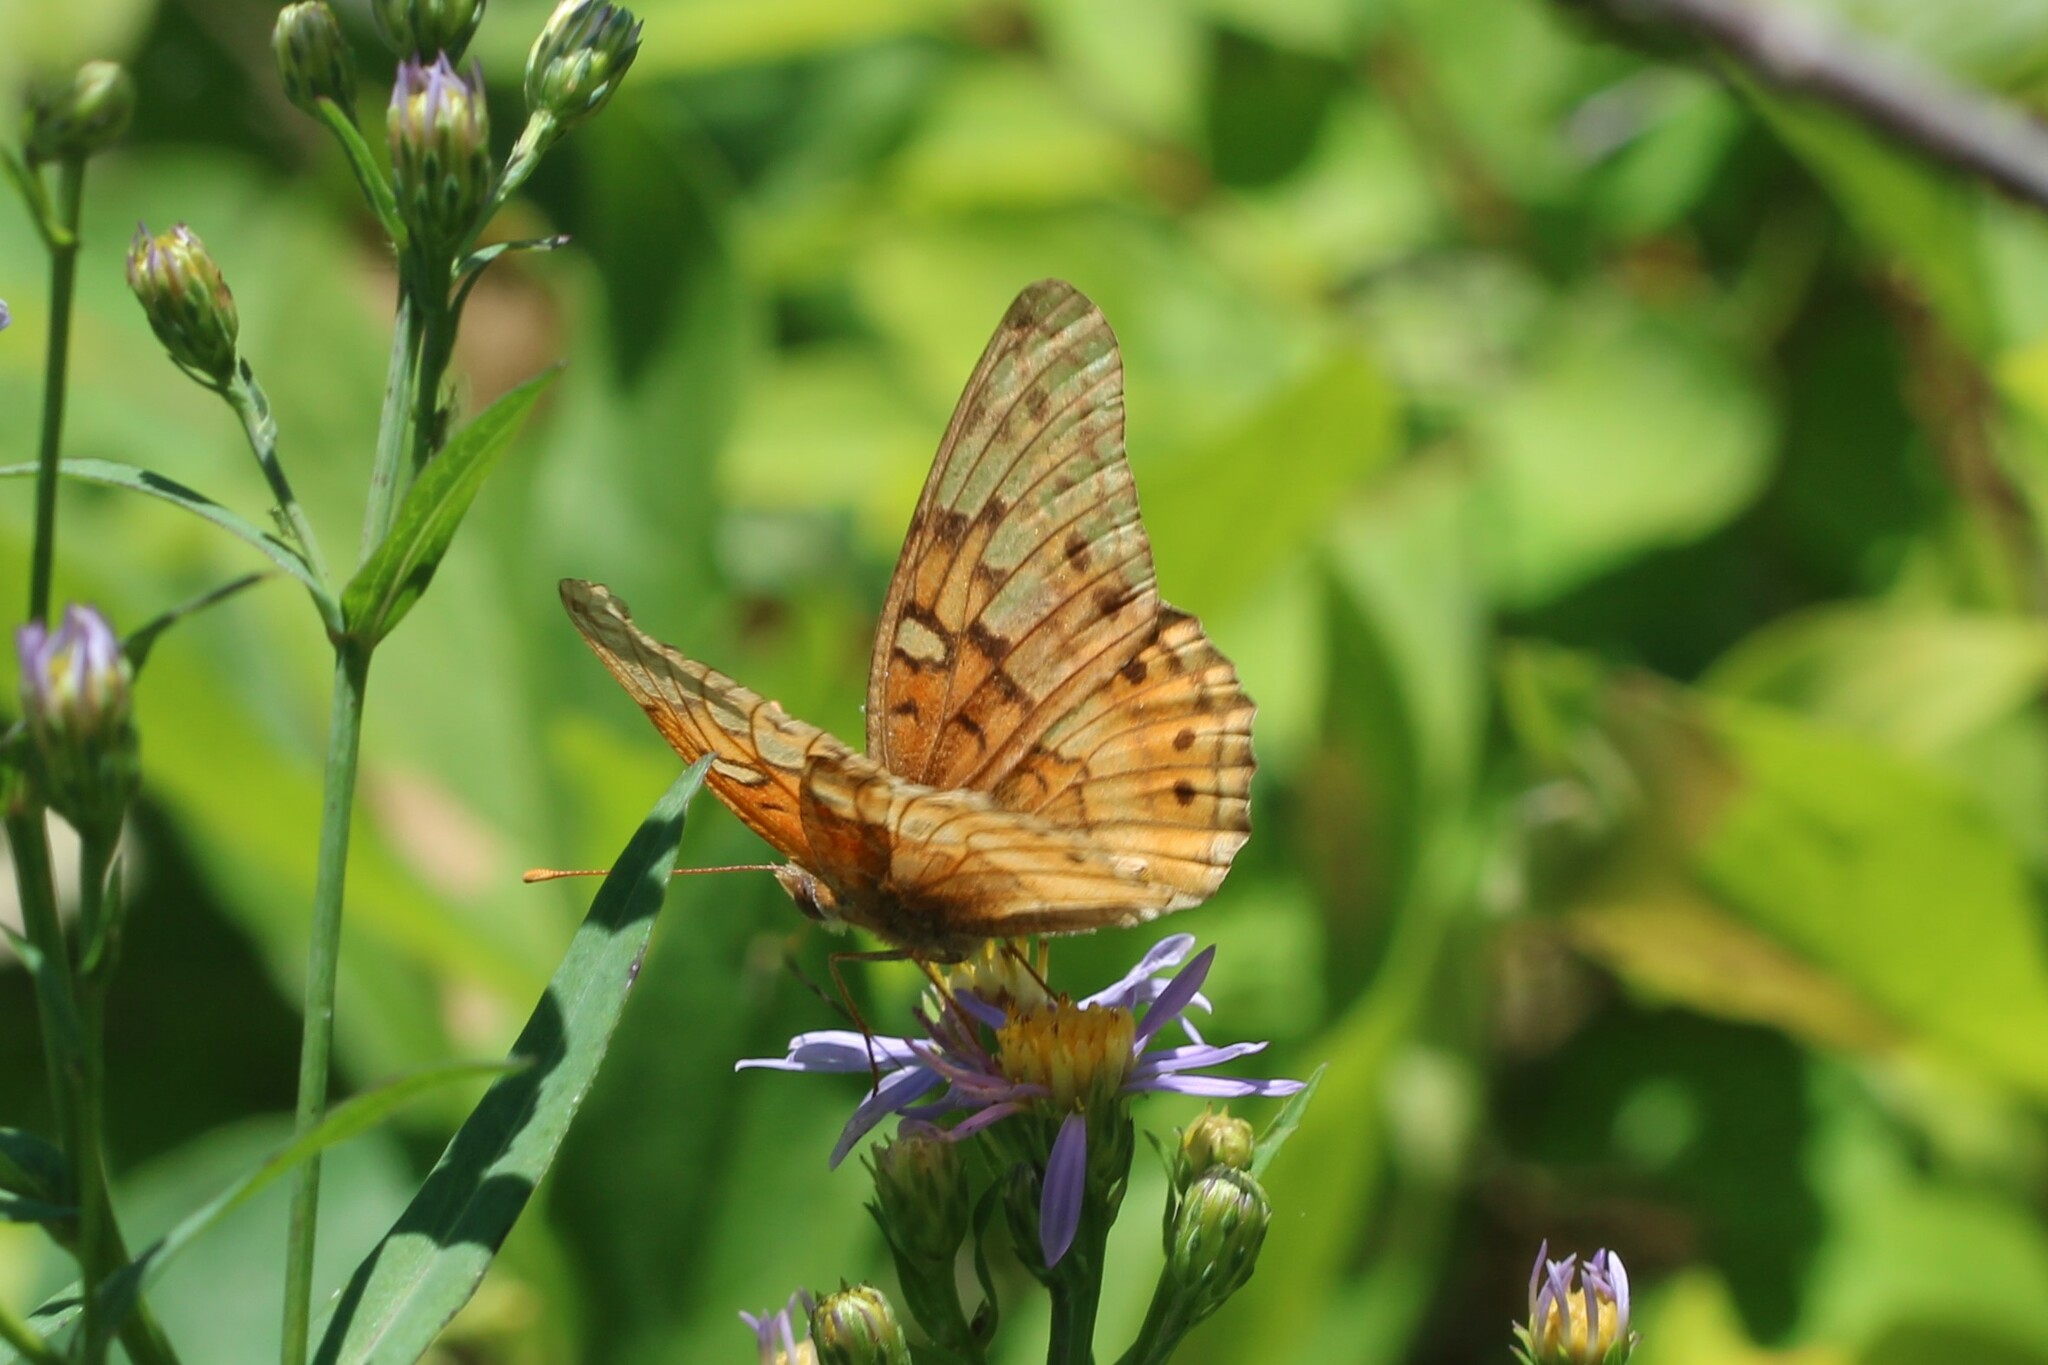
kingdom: Animalia
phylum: Arthropoda
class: Insecta
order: Lepidoptera
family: Nymphalidae
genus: Euptoieta
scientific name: Euptoieta claudia
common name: Variegated fritillary
